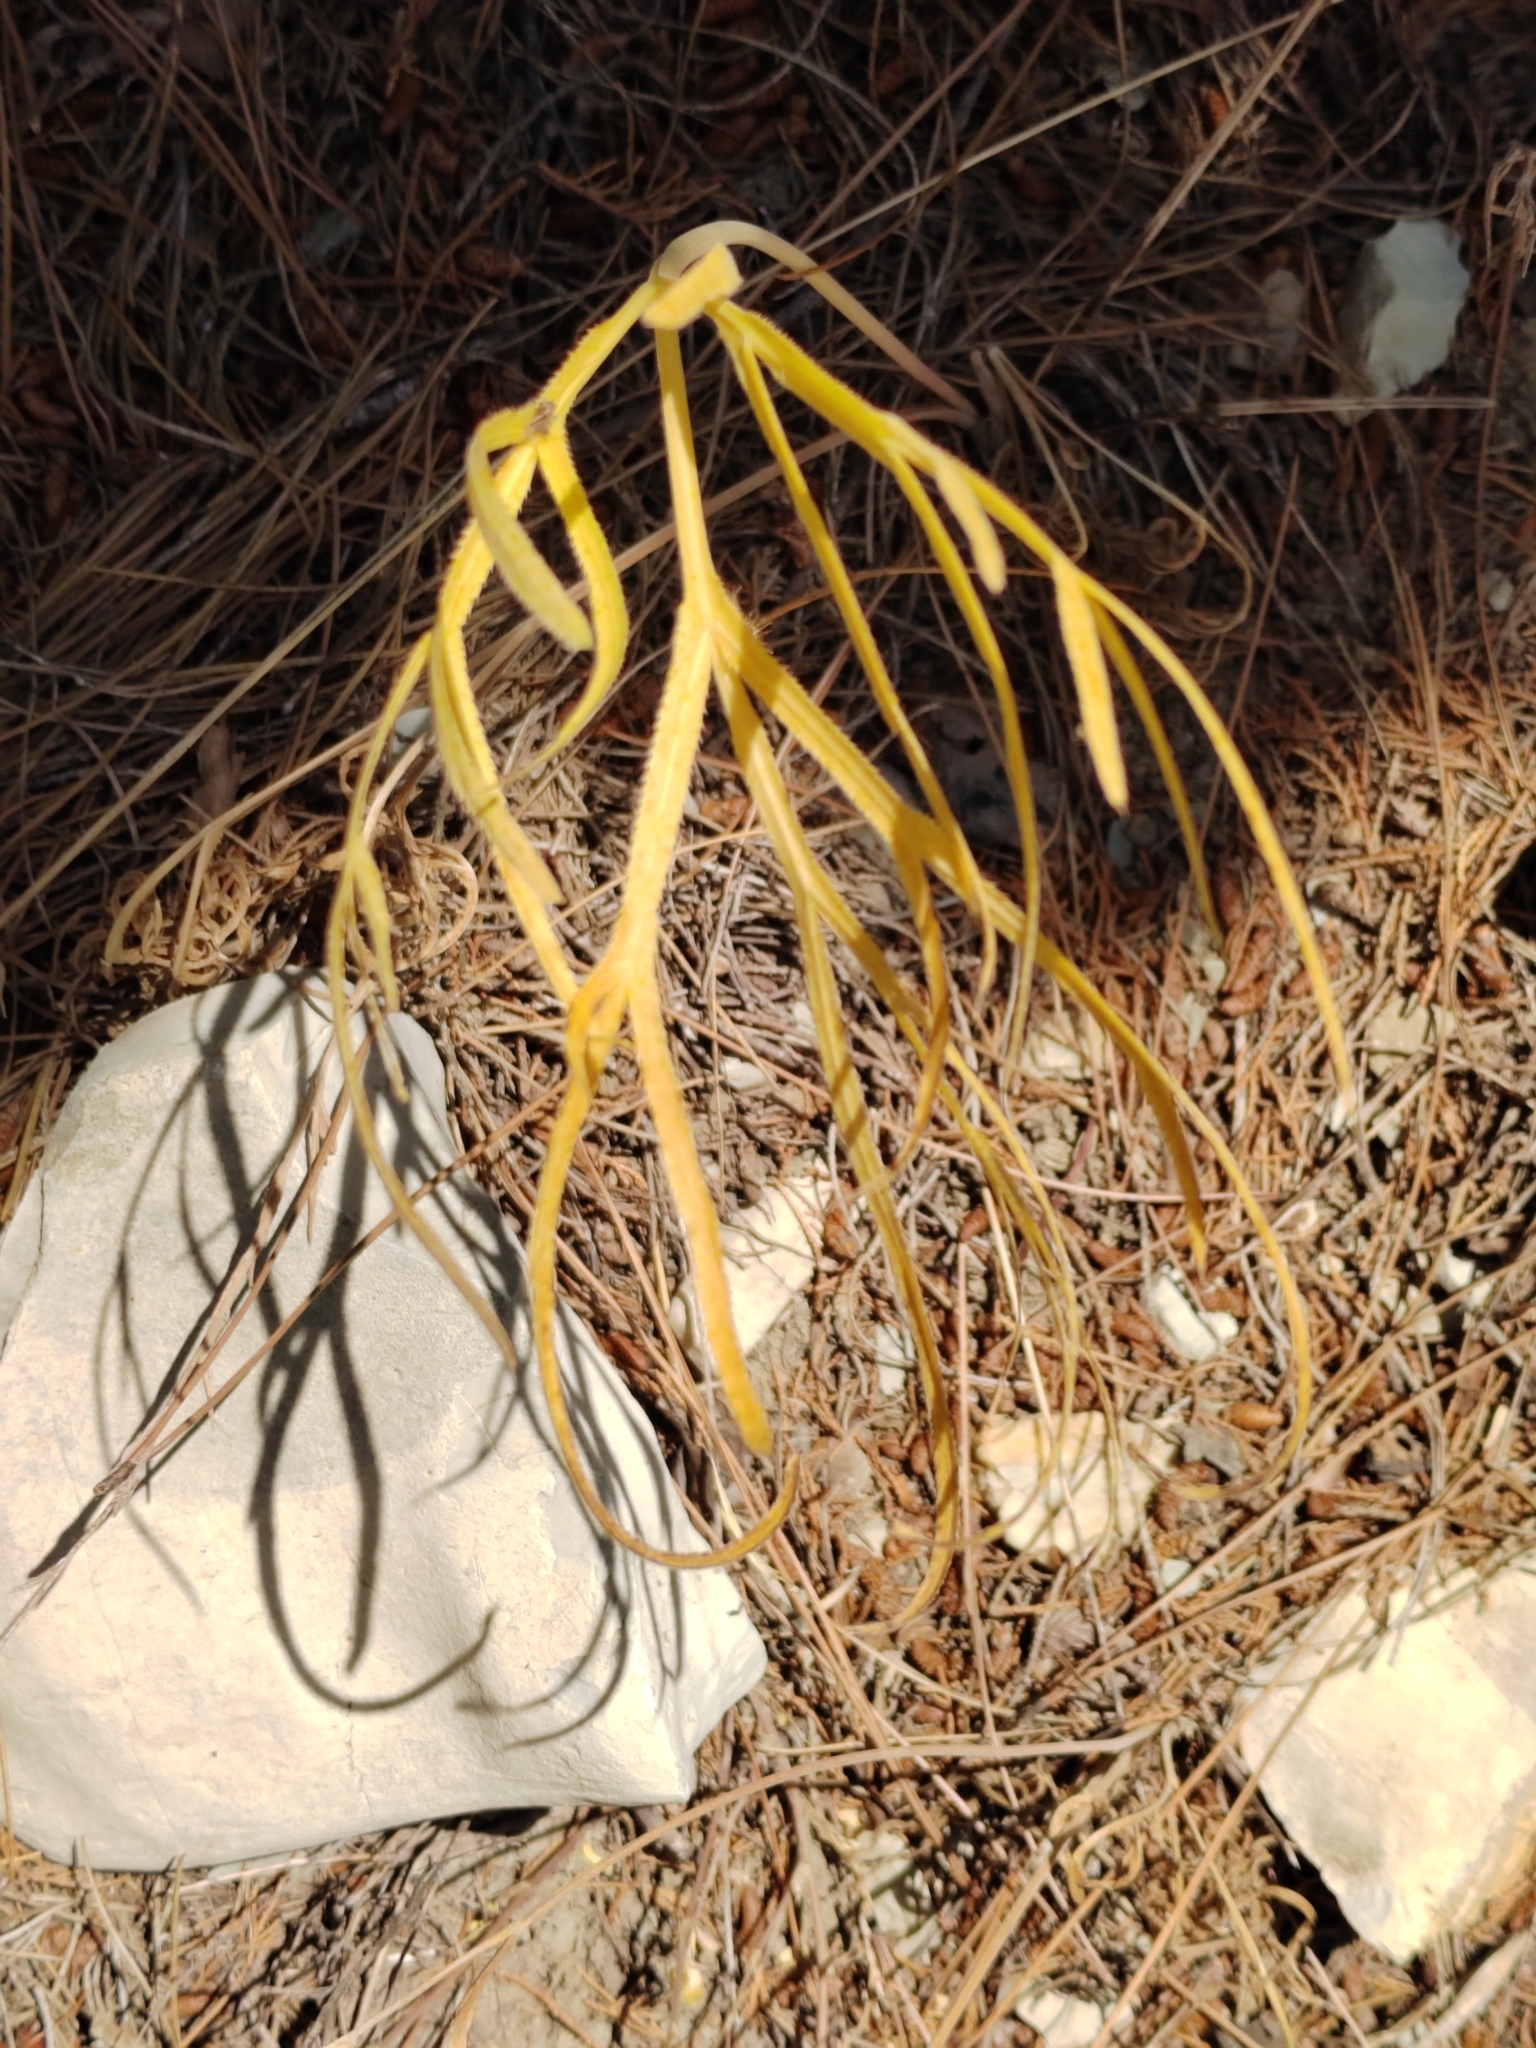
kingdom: Plantae
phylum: Tracheophyta
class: Magnoliopsida
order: Apiales
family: Apiaceae
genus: Falcaria
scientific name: Falcaria vulgaris
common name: Longleaf
